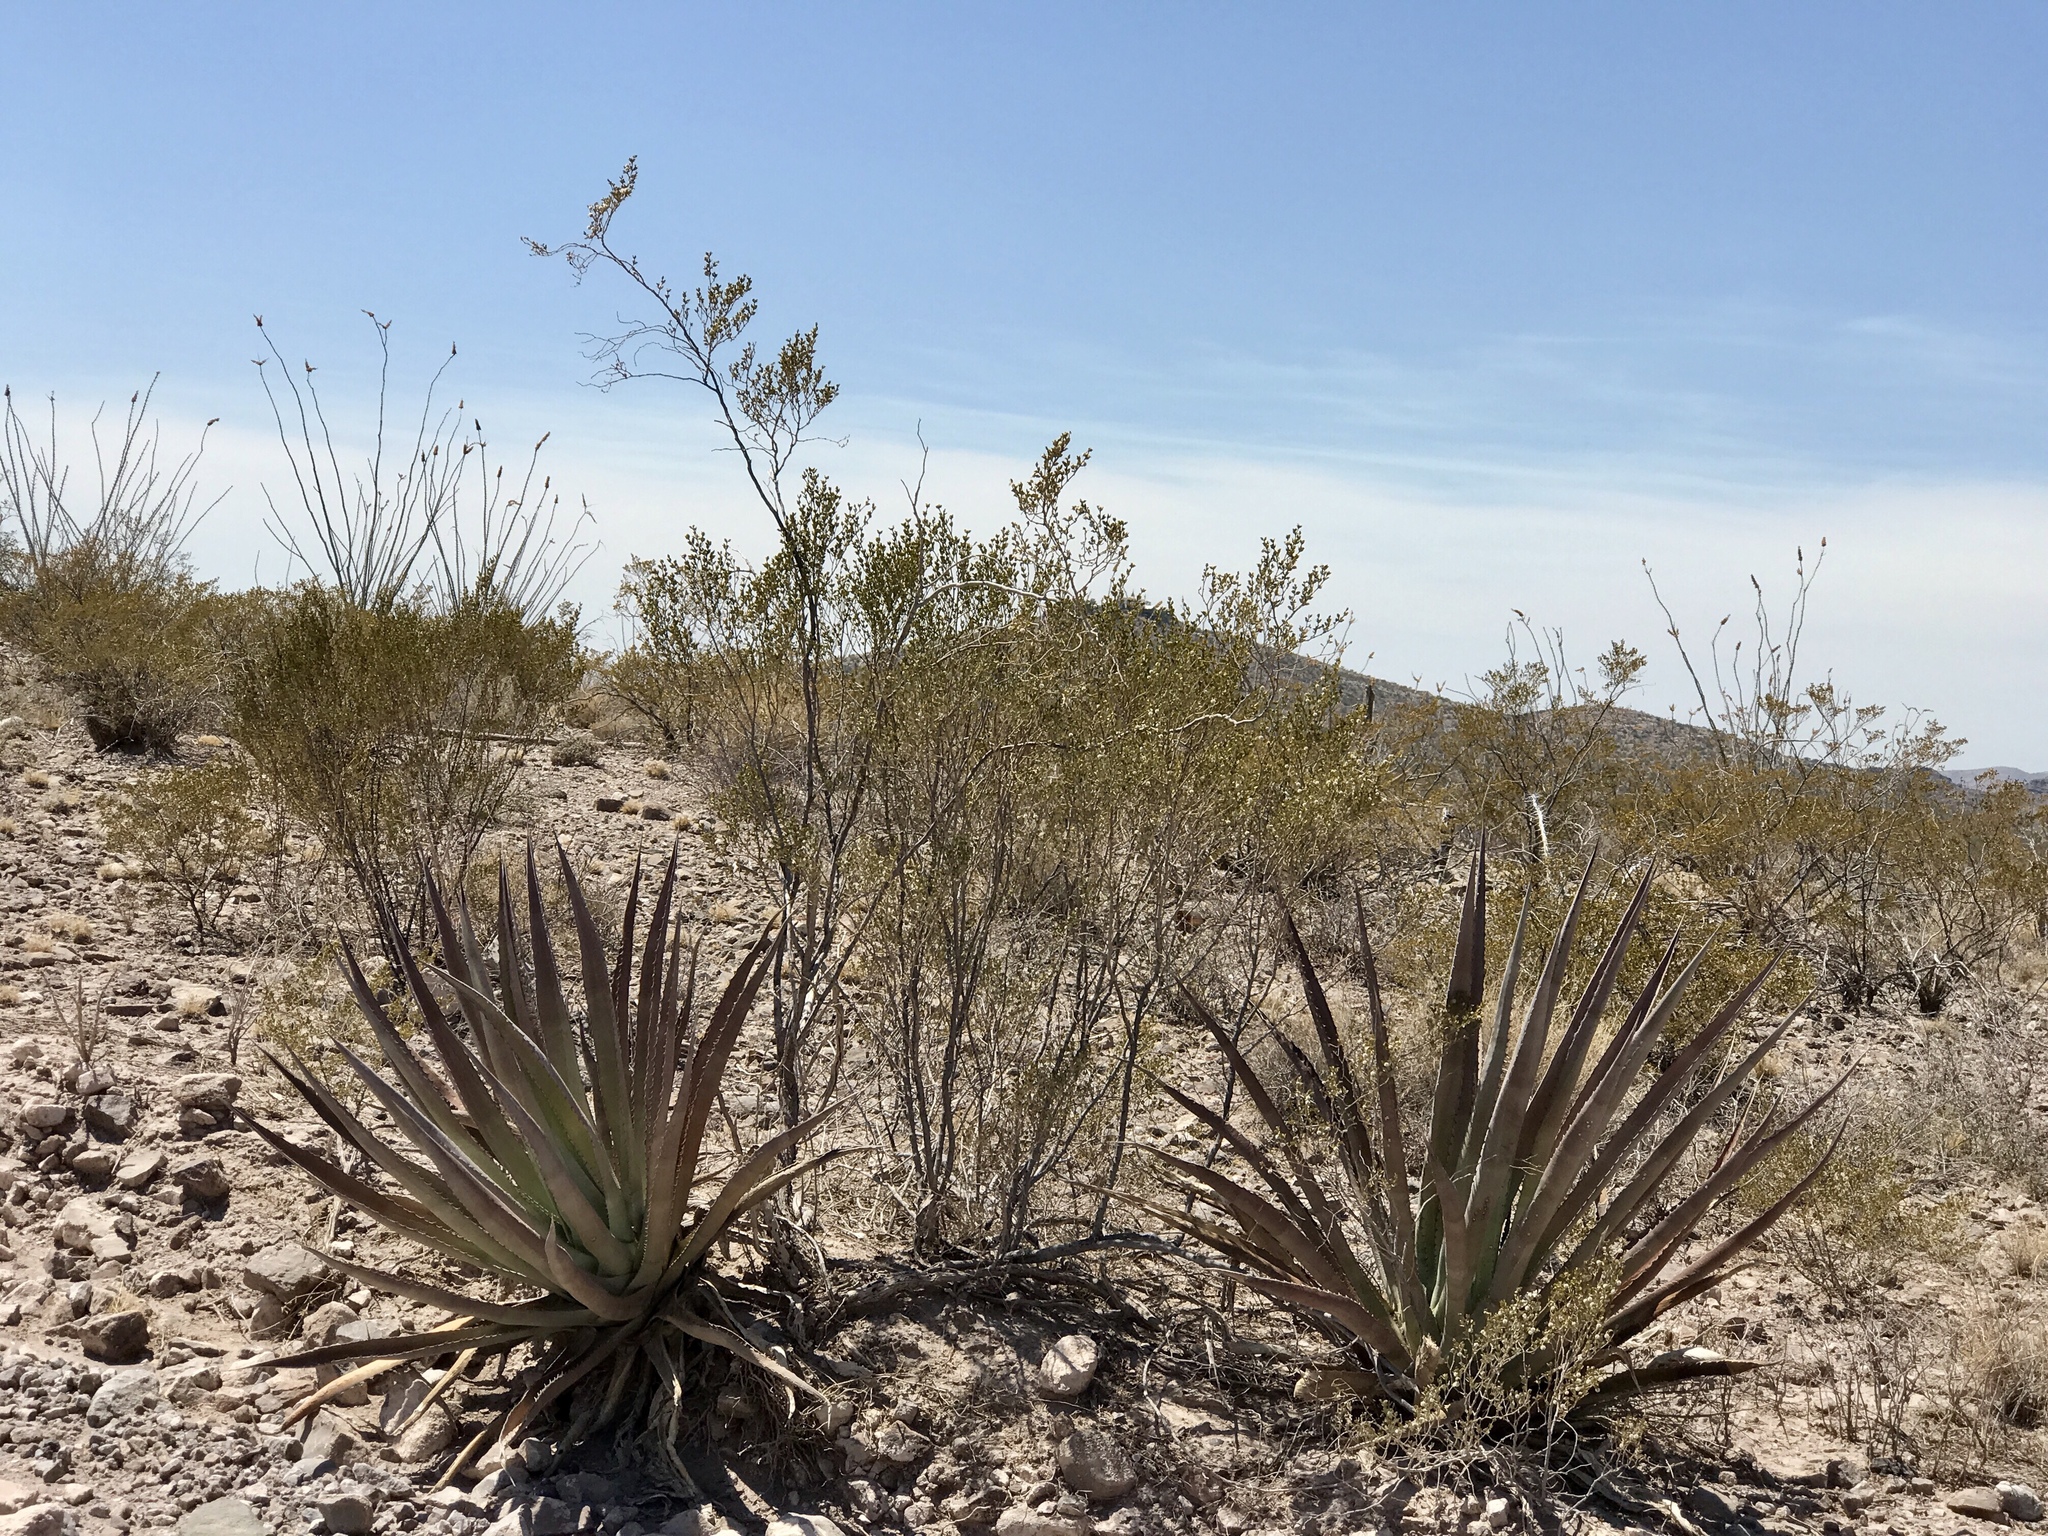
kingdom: Plantae
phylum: Tracheophyta
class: Magnoliopsida
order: Zygophyllales
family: Zygophyllaceae
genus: Larrea
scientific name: Larrea tridentata
